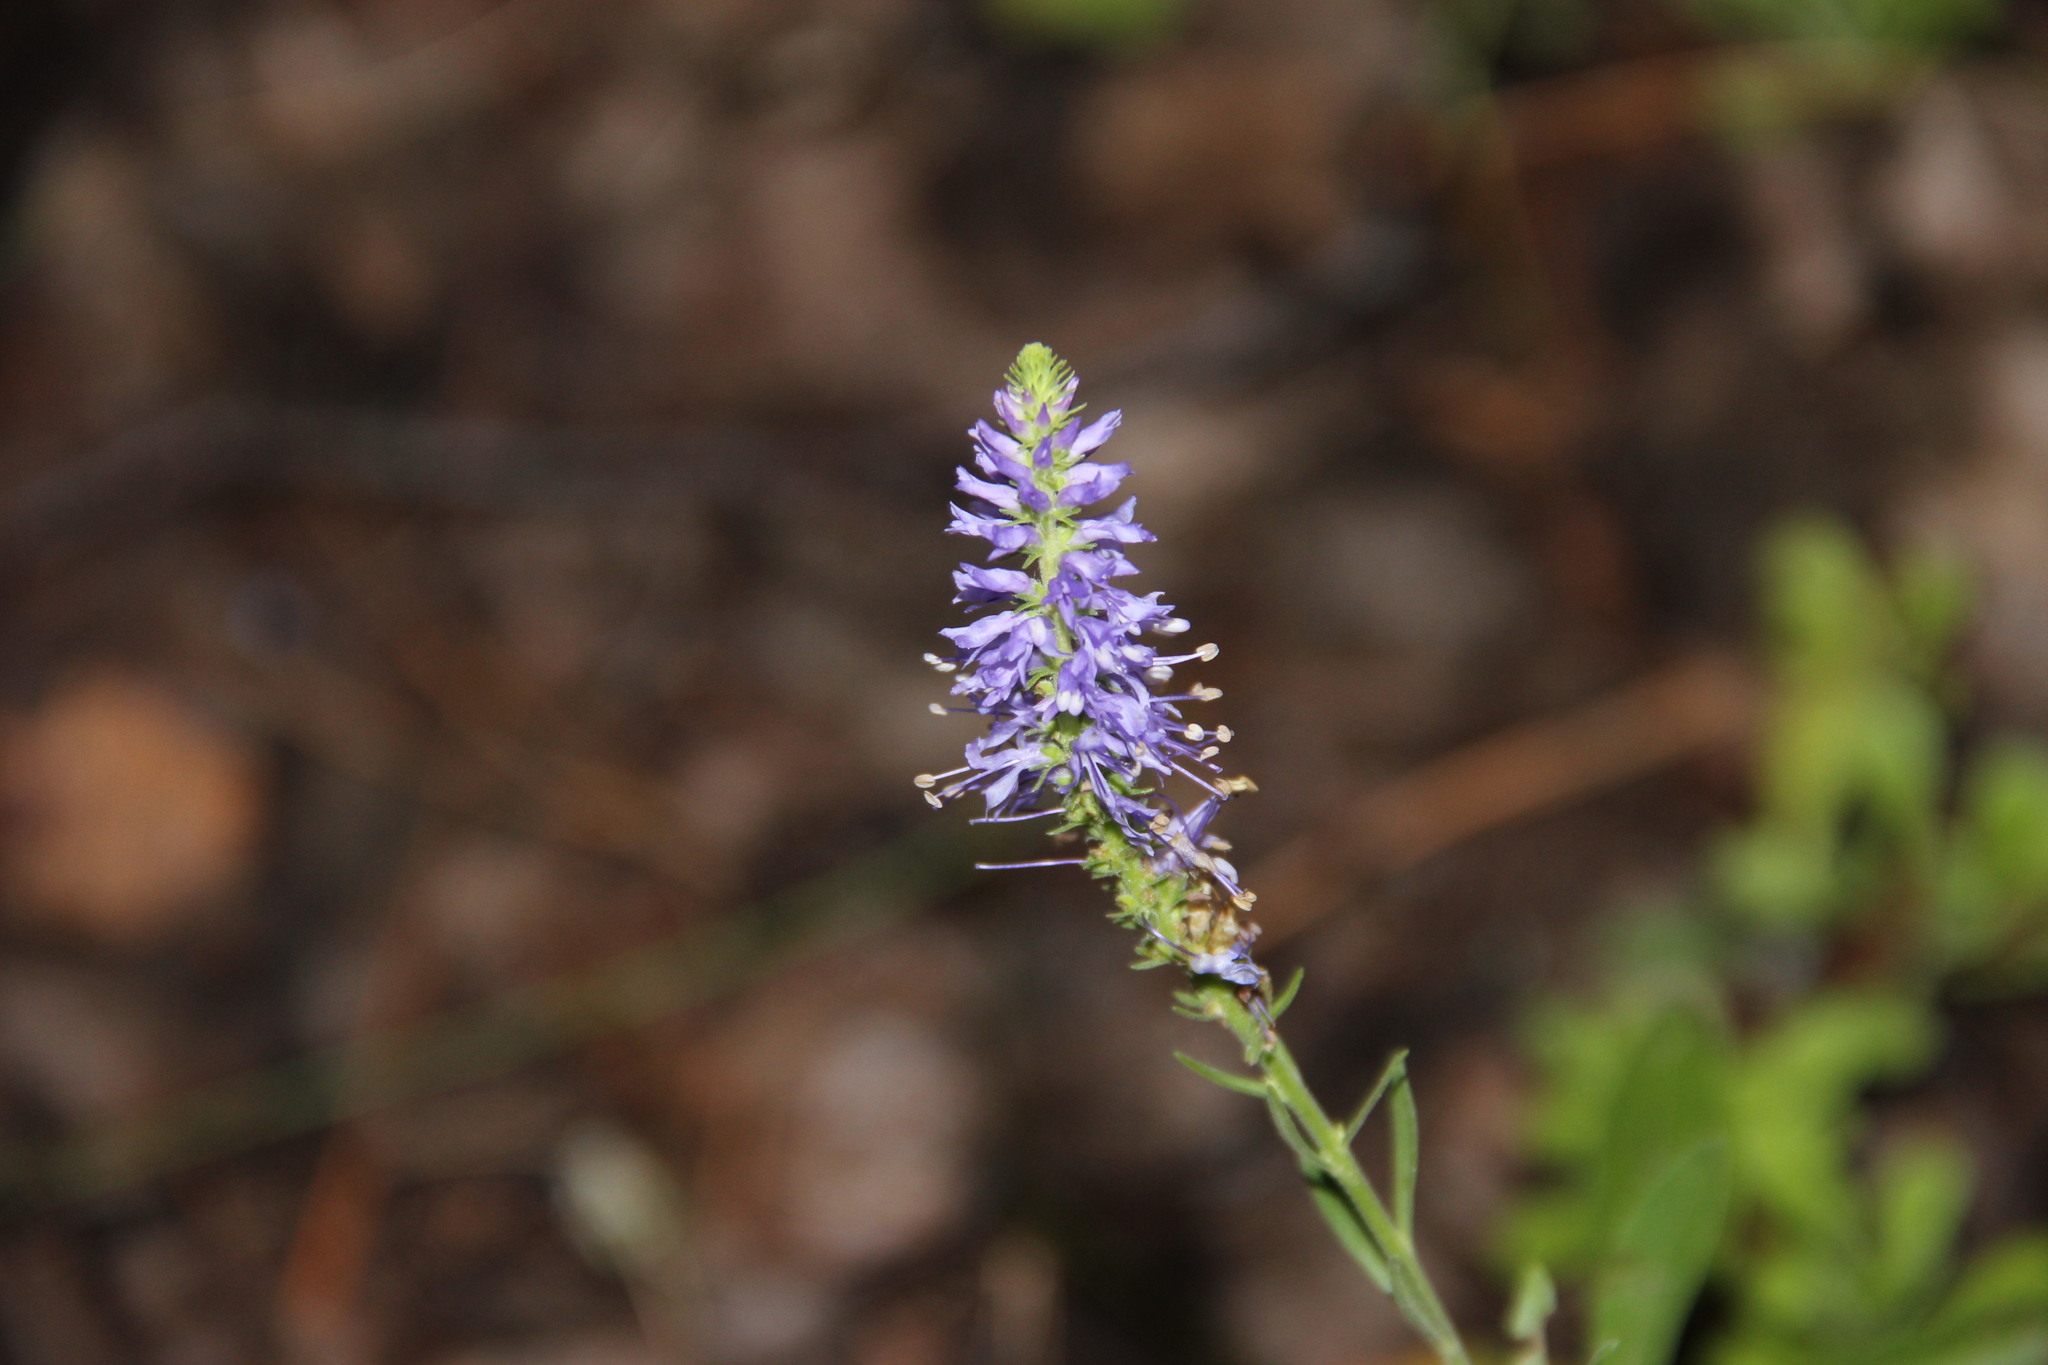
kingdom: Plantae
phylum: Tracheophyta
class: Magnoliopsida
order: Lamiales
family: Plantaginaceae
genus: Veronica
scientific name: Veronica spicata
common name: Spiked speedwell
